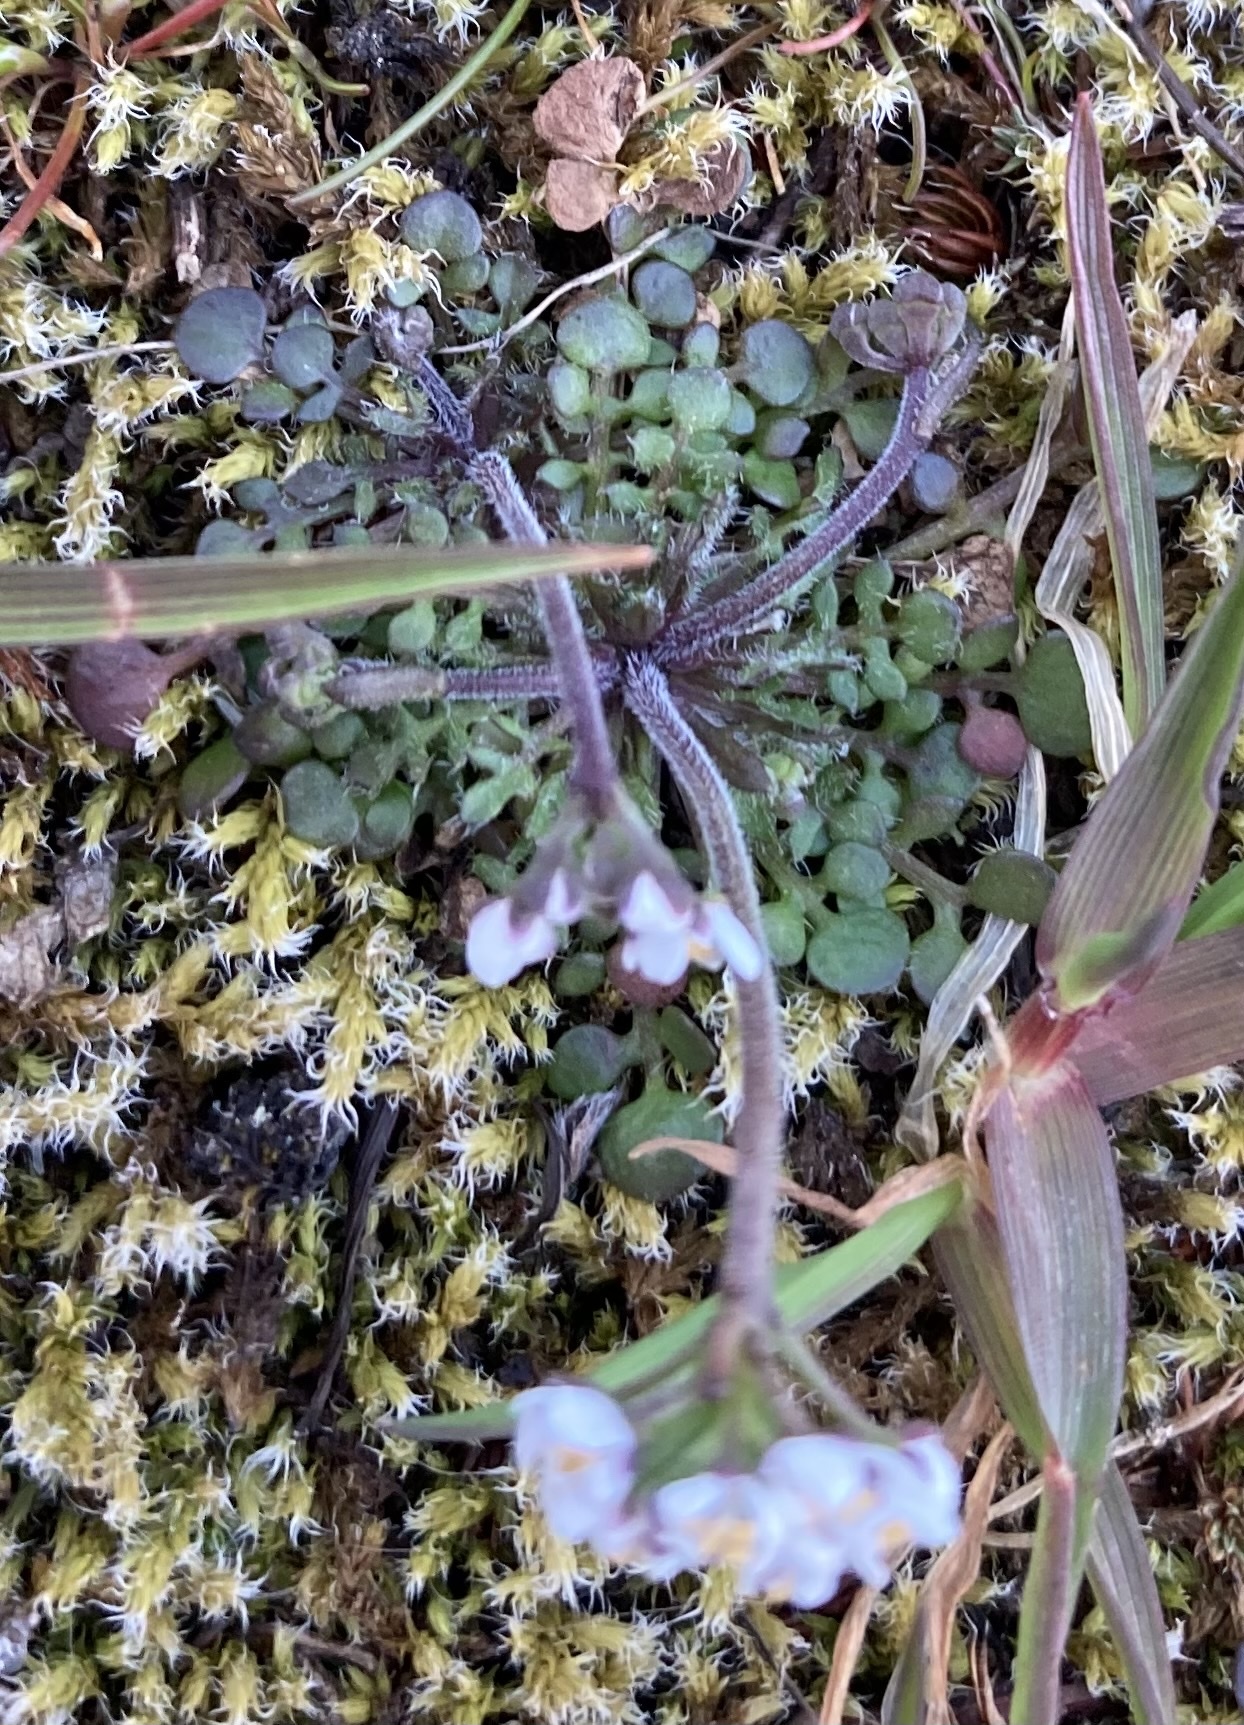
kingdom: Plantae
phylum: Tracheophyta
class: Magnoliopsida
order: Brassicales
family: Brassicaceae
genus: Teesdalia
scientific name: Teesdalia nudicaulis
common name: Shepherd's cress
